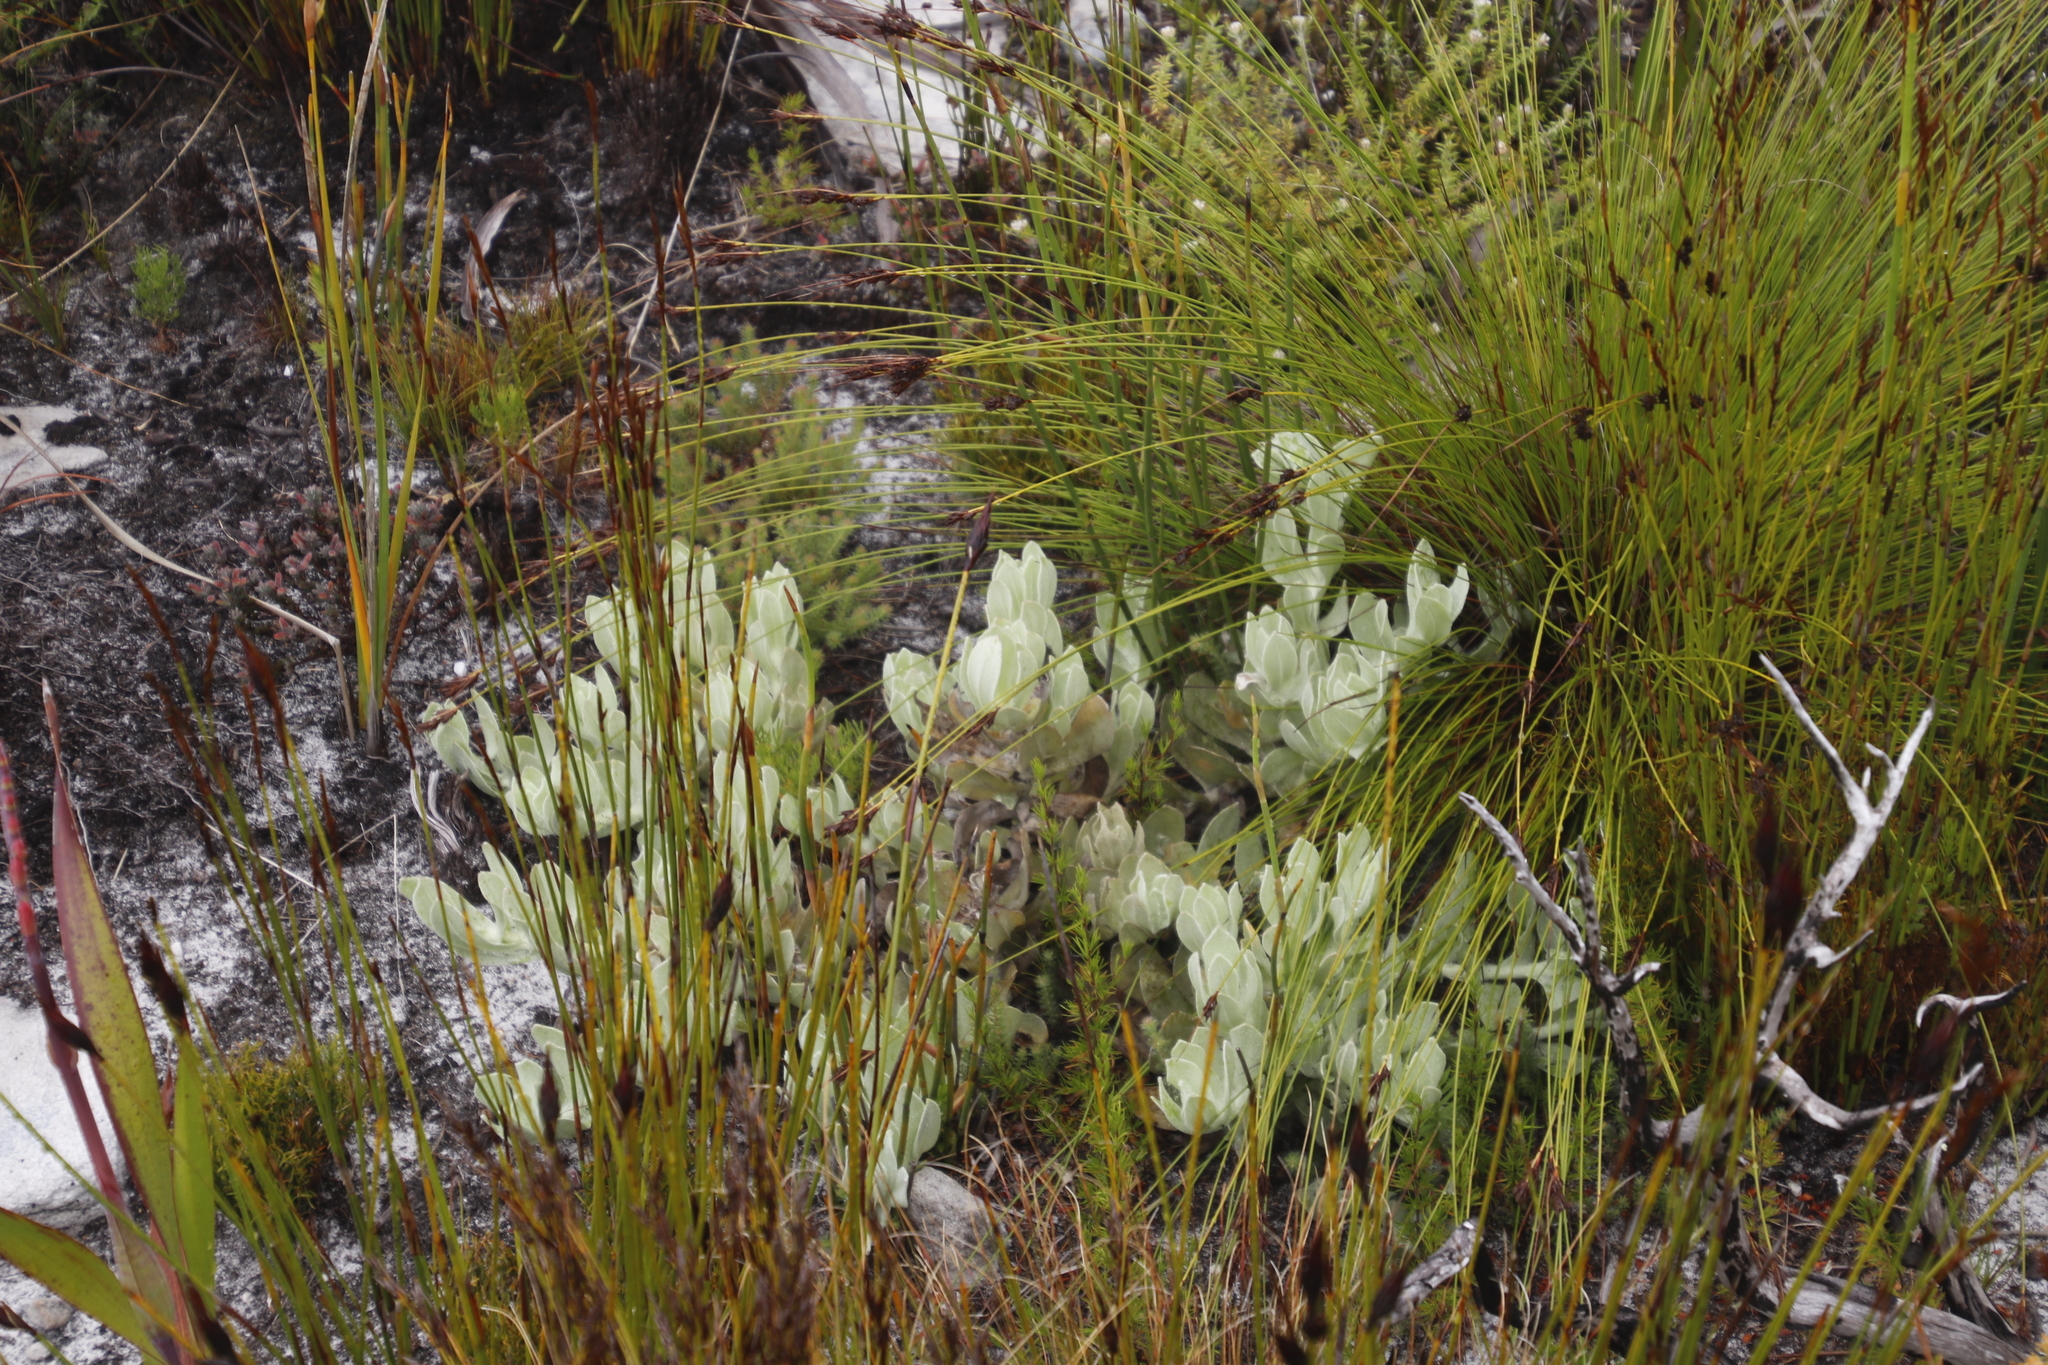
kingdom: Plantae
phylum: Tracheophyta
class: Magnoliopsida
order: Asterales
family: Asteraceae
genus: Syncarpha
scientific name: Syncarpha speciosissima
